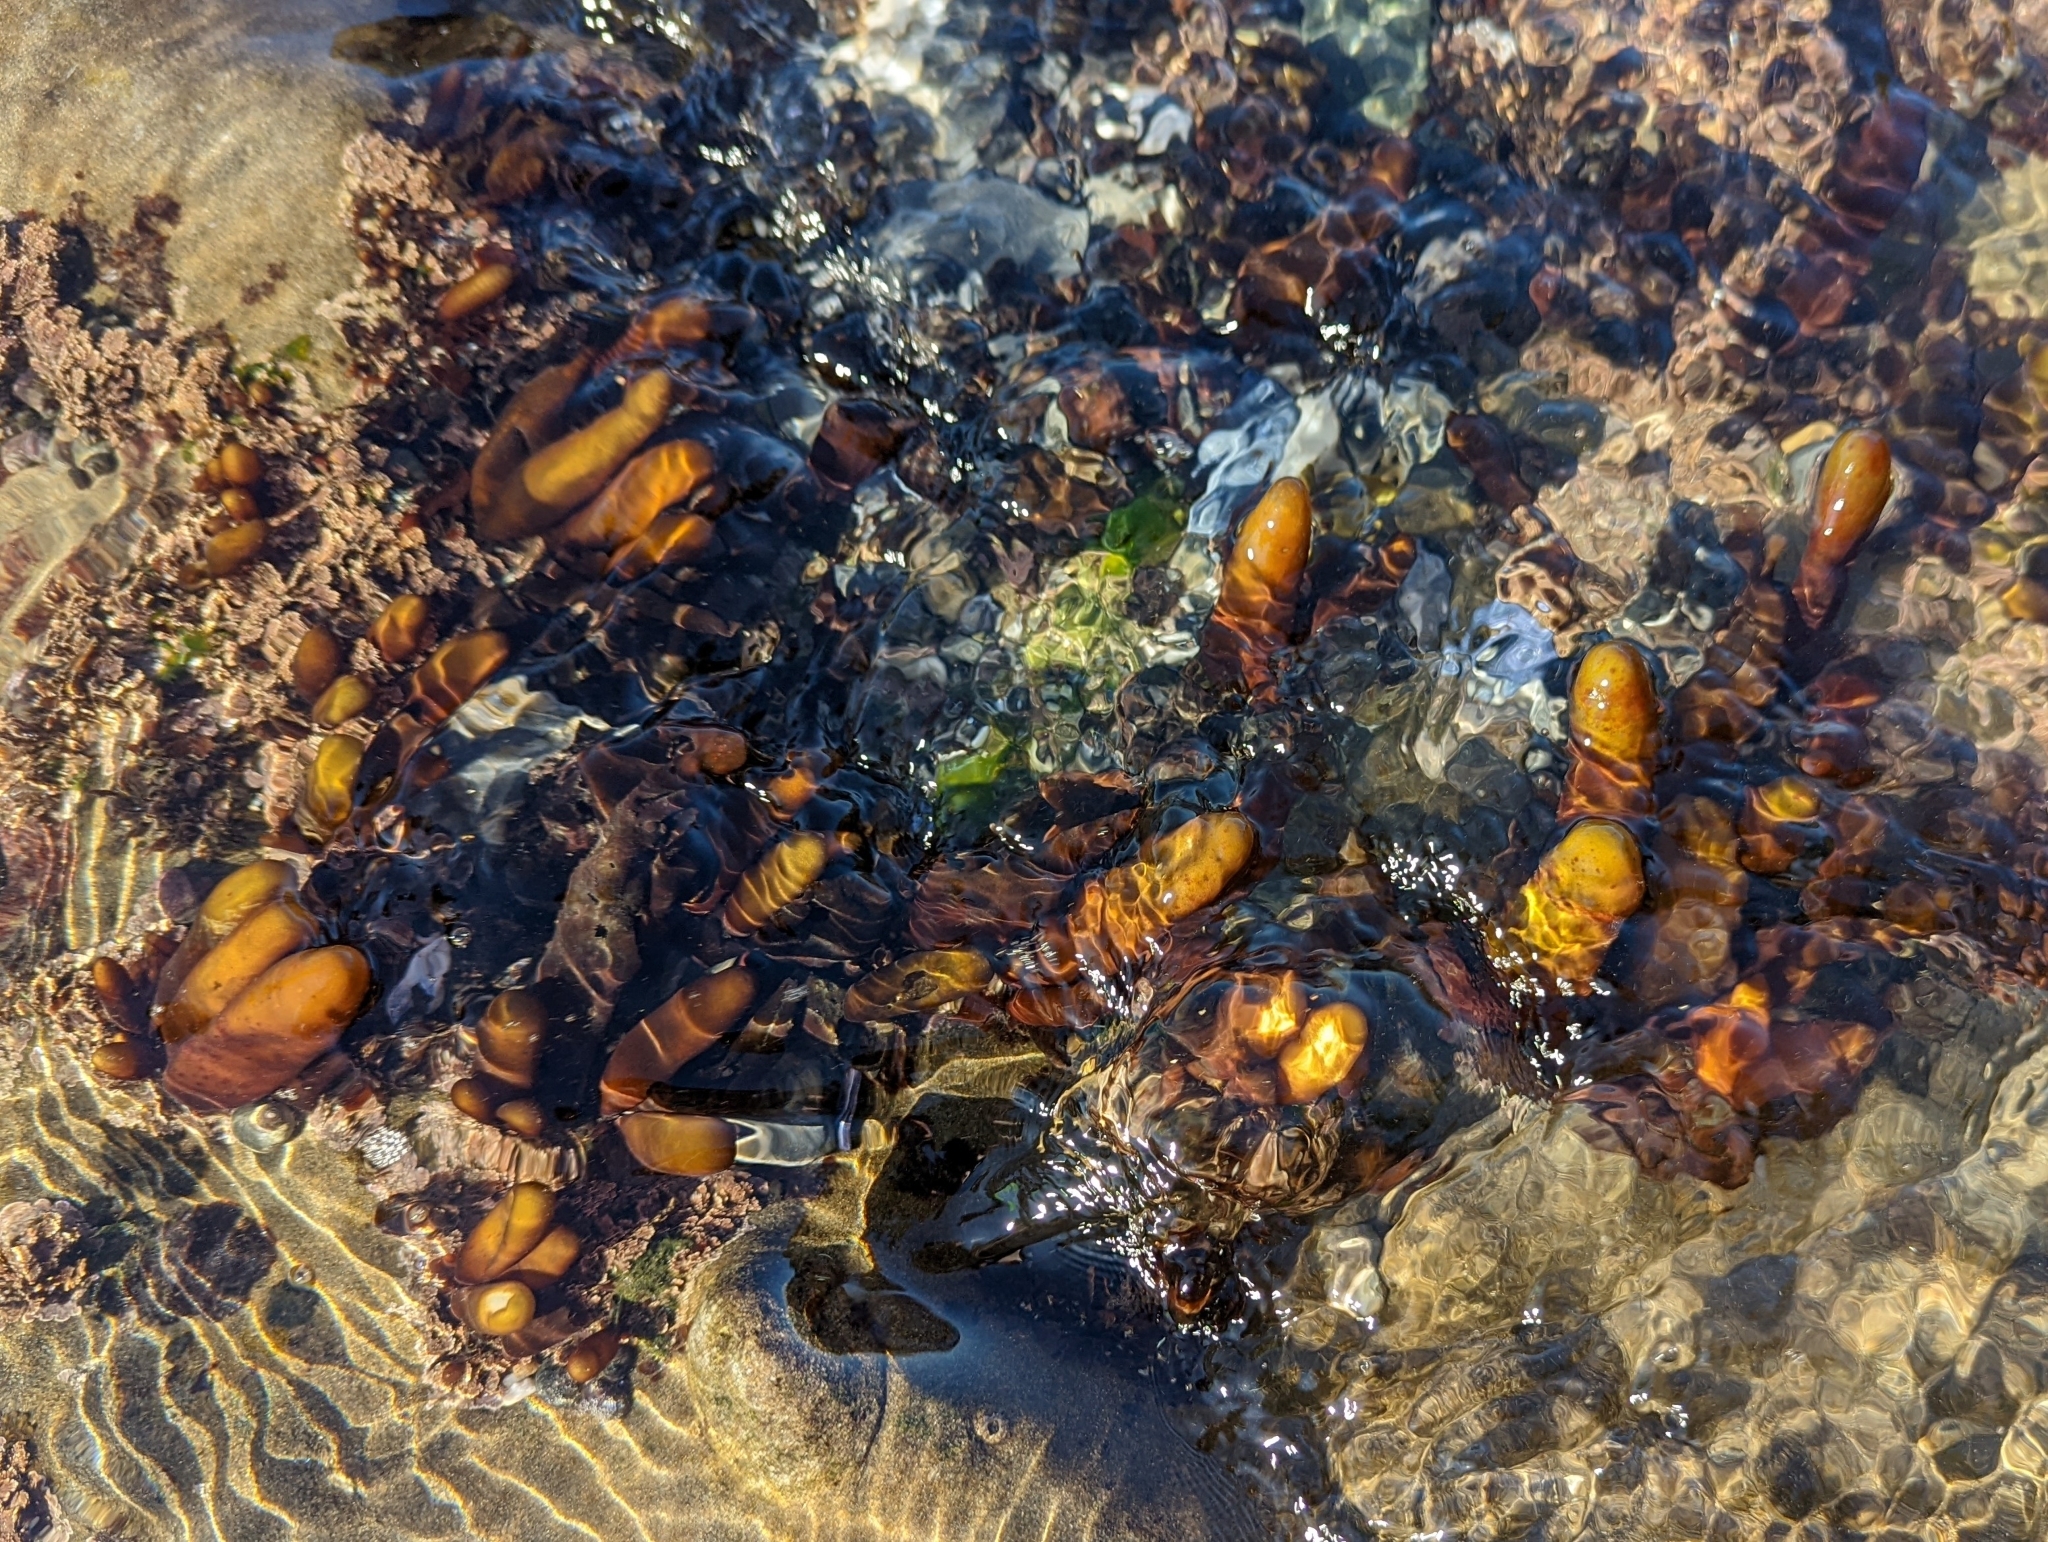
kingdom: Plantae
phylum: Rhodophyta
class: Florideophyceae
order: Palmariales
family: Palmariaceae
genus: Halosaccion
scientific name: Halosaccion glandiforme
